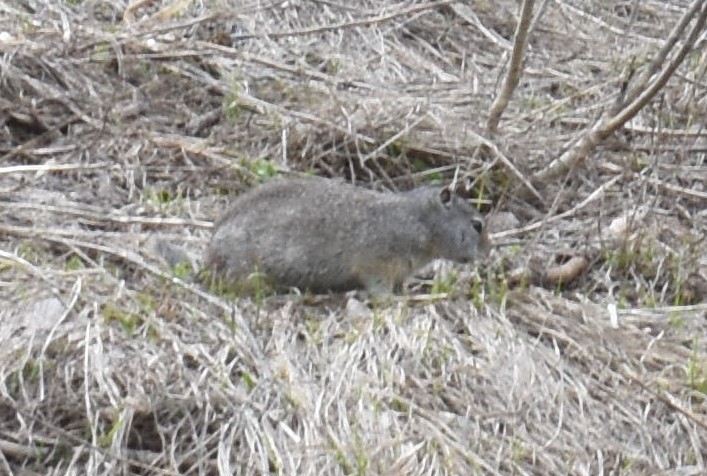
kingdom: Animalia
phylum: Chordata
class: Mammalia
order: Rodentia
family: Sciuridae
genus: Urocitellus
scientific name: Urocitellus armatus
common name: Uinta ground squirrel
